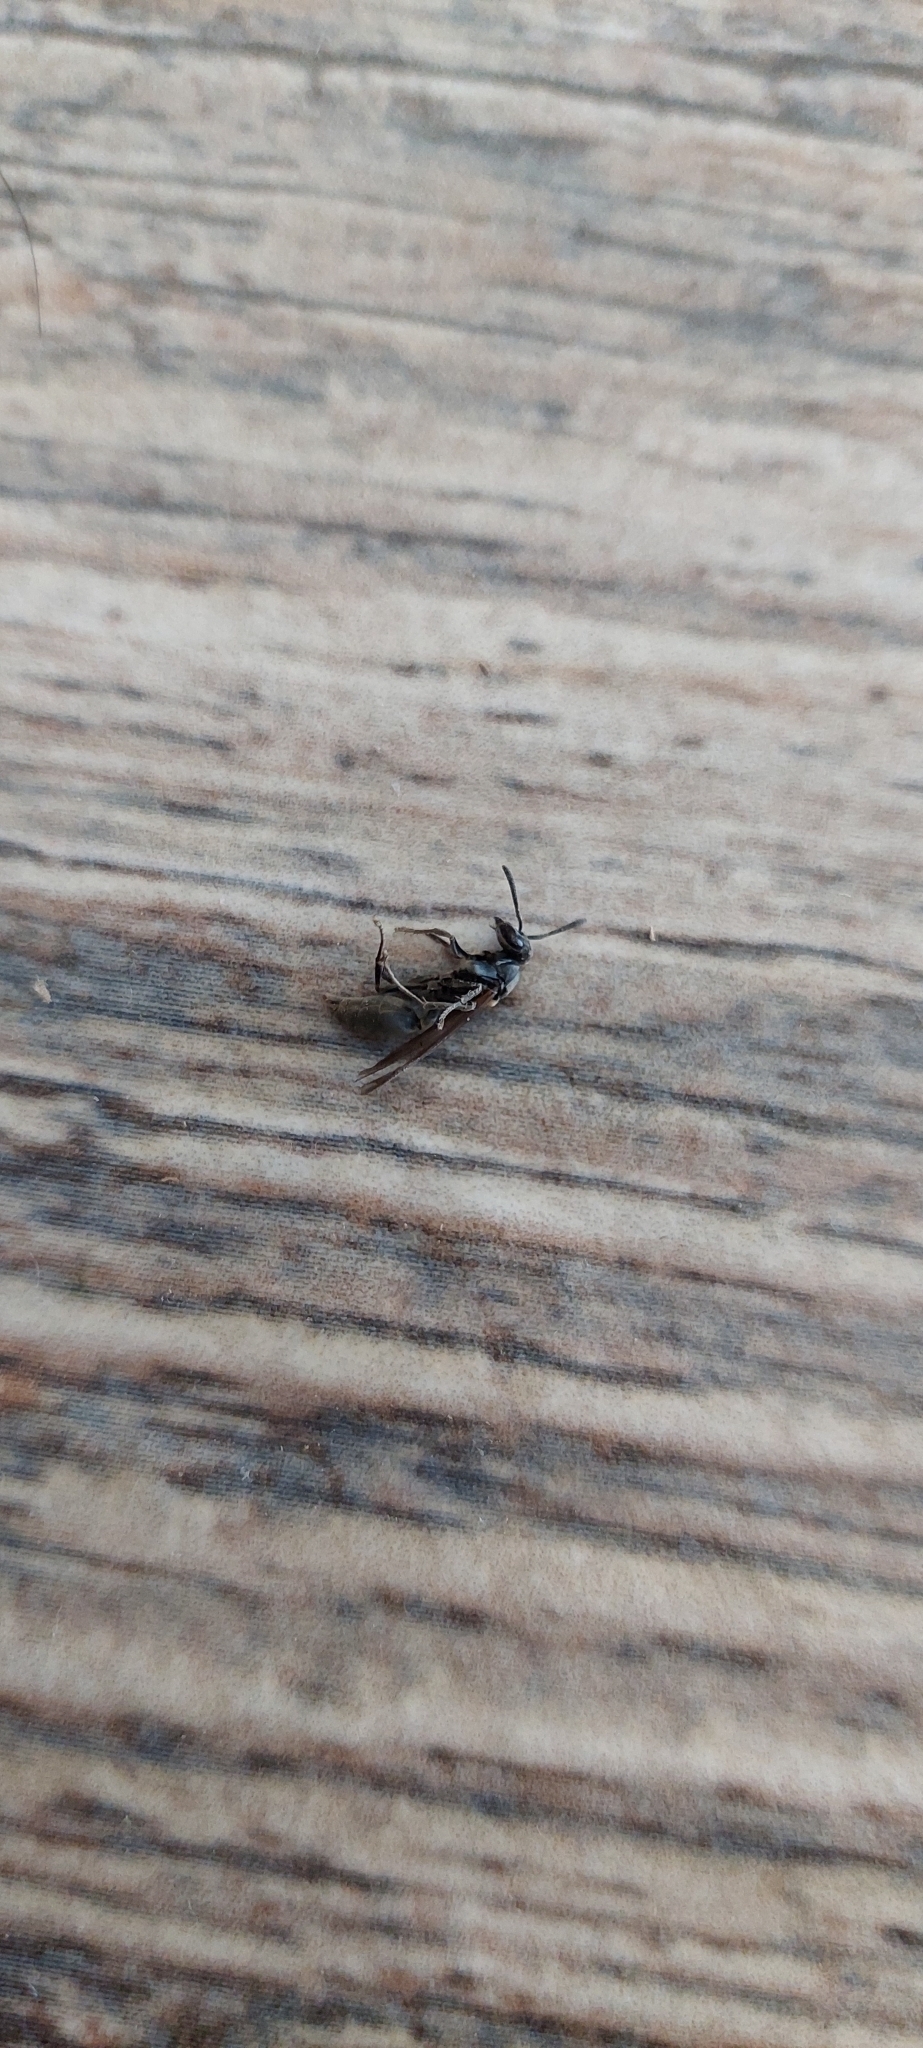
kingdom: Animalia
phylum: Arthropoda
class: Insecta
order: Hymenoptera
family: Eumenidae
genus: Polybia
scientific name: Polybia scutellaris
